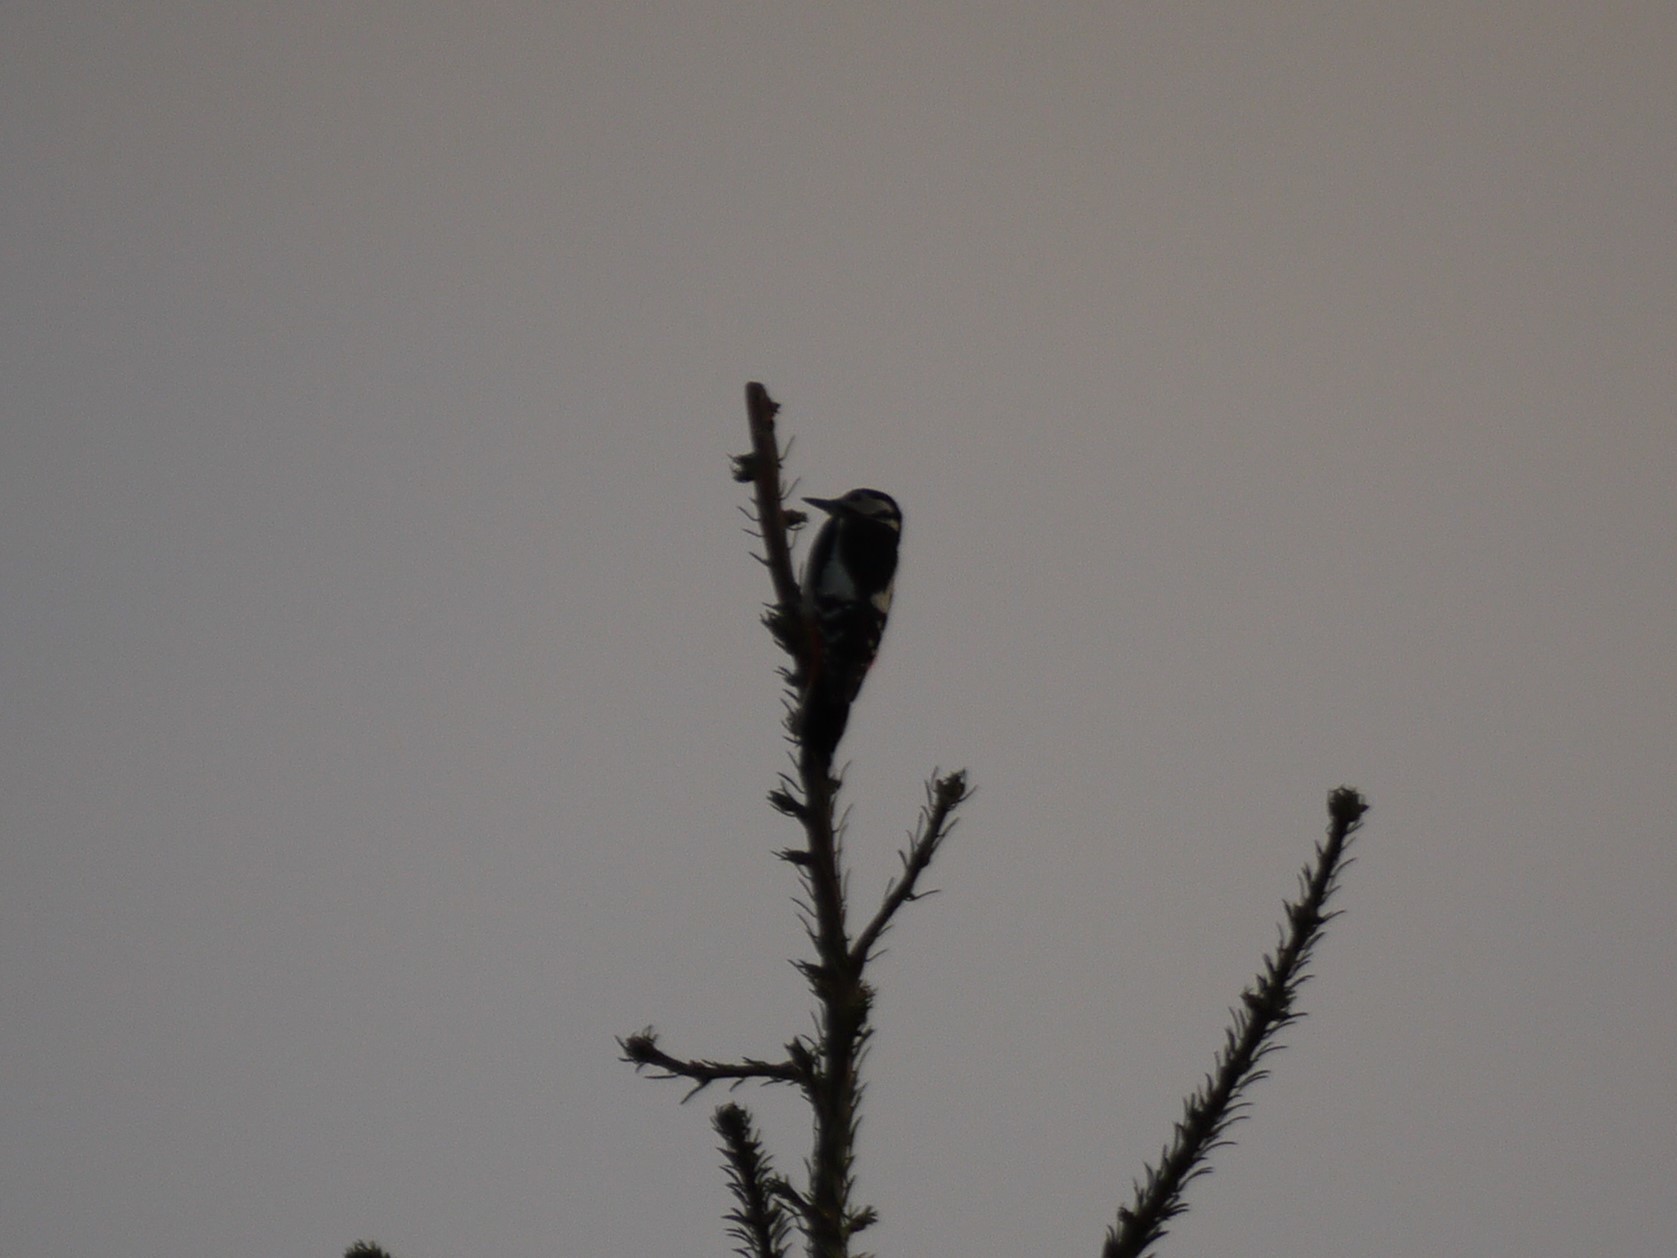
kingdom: Animalia
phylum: Chordata
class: Aves
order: Piciformes
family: Picidae
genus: Dendrocopos
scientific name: Dendrocopos major
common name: Great spotted woodpecker
